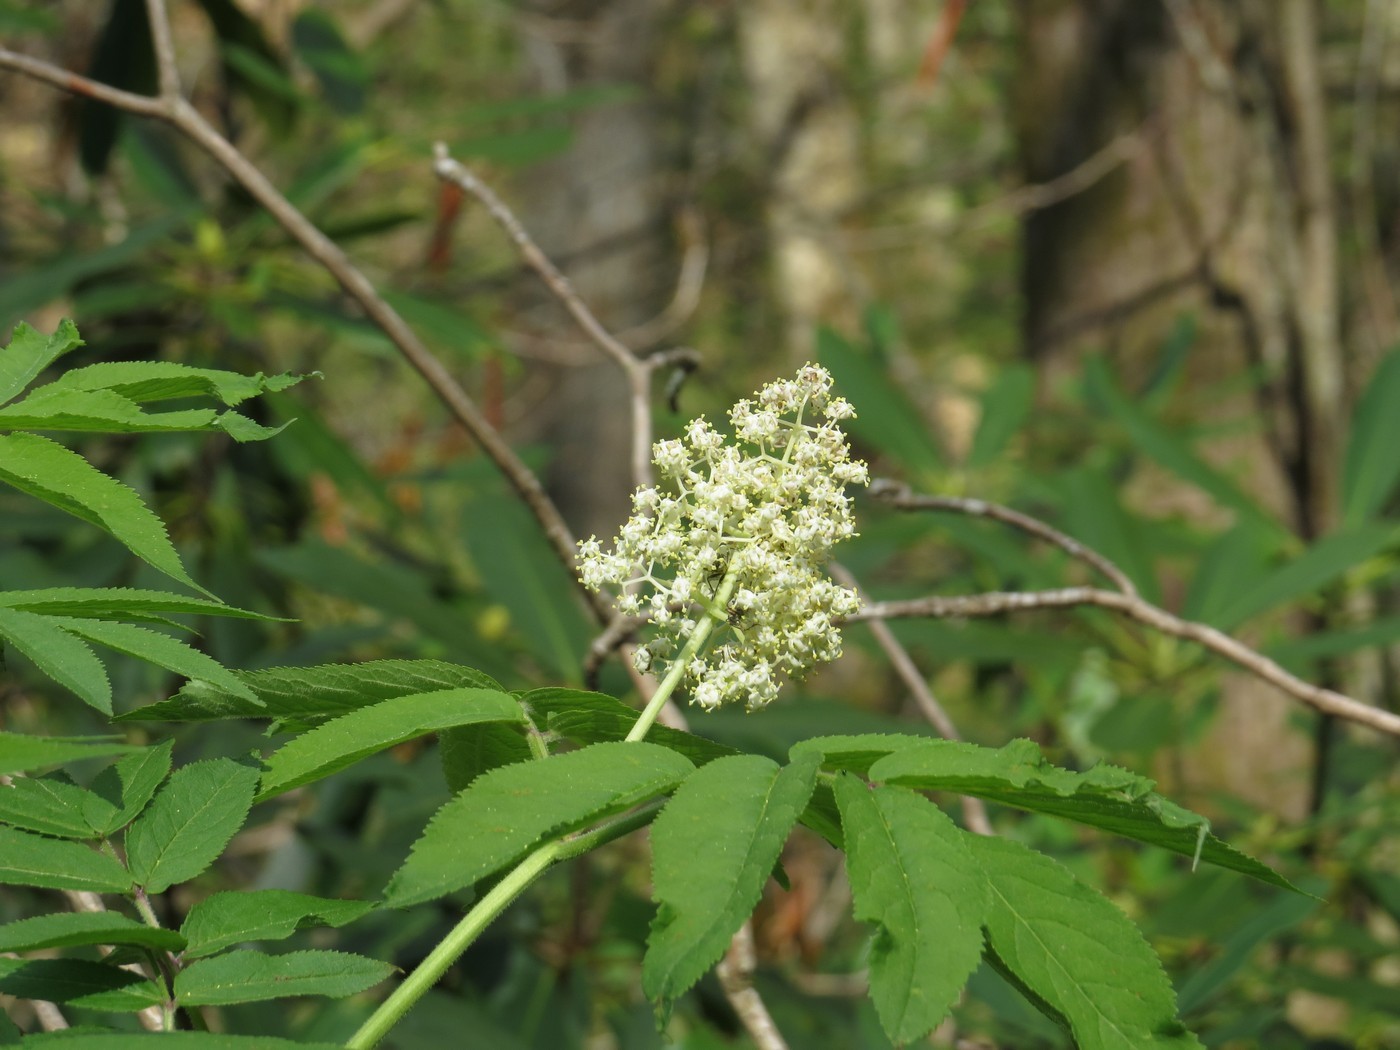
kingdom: Plantae
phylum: Tracheophyta
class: Magnoliopsida
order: Dipsacales
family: Viburnaceae
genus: Sambucus
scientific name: Sambucus racemosa
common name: Red-berried elder
